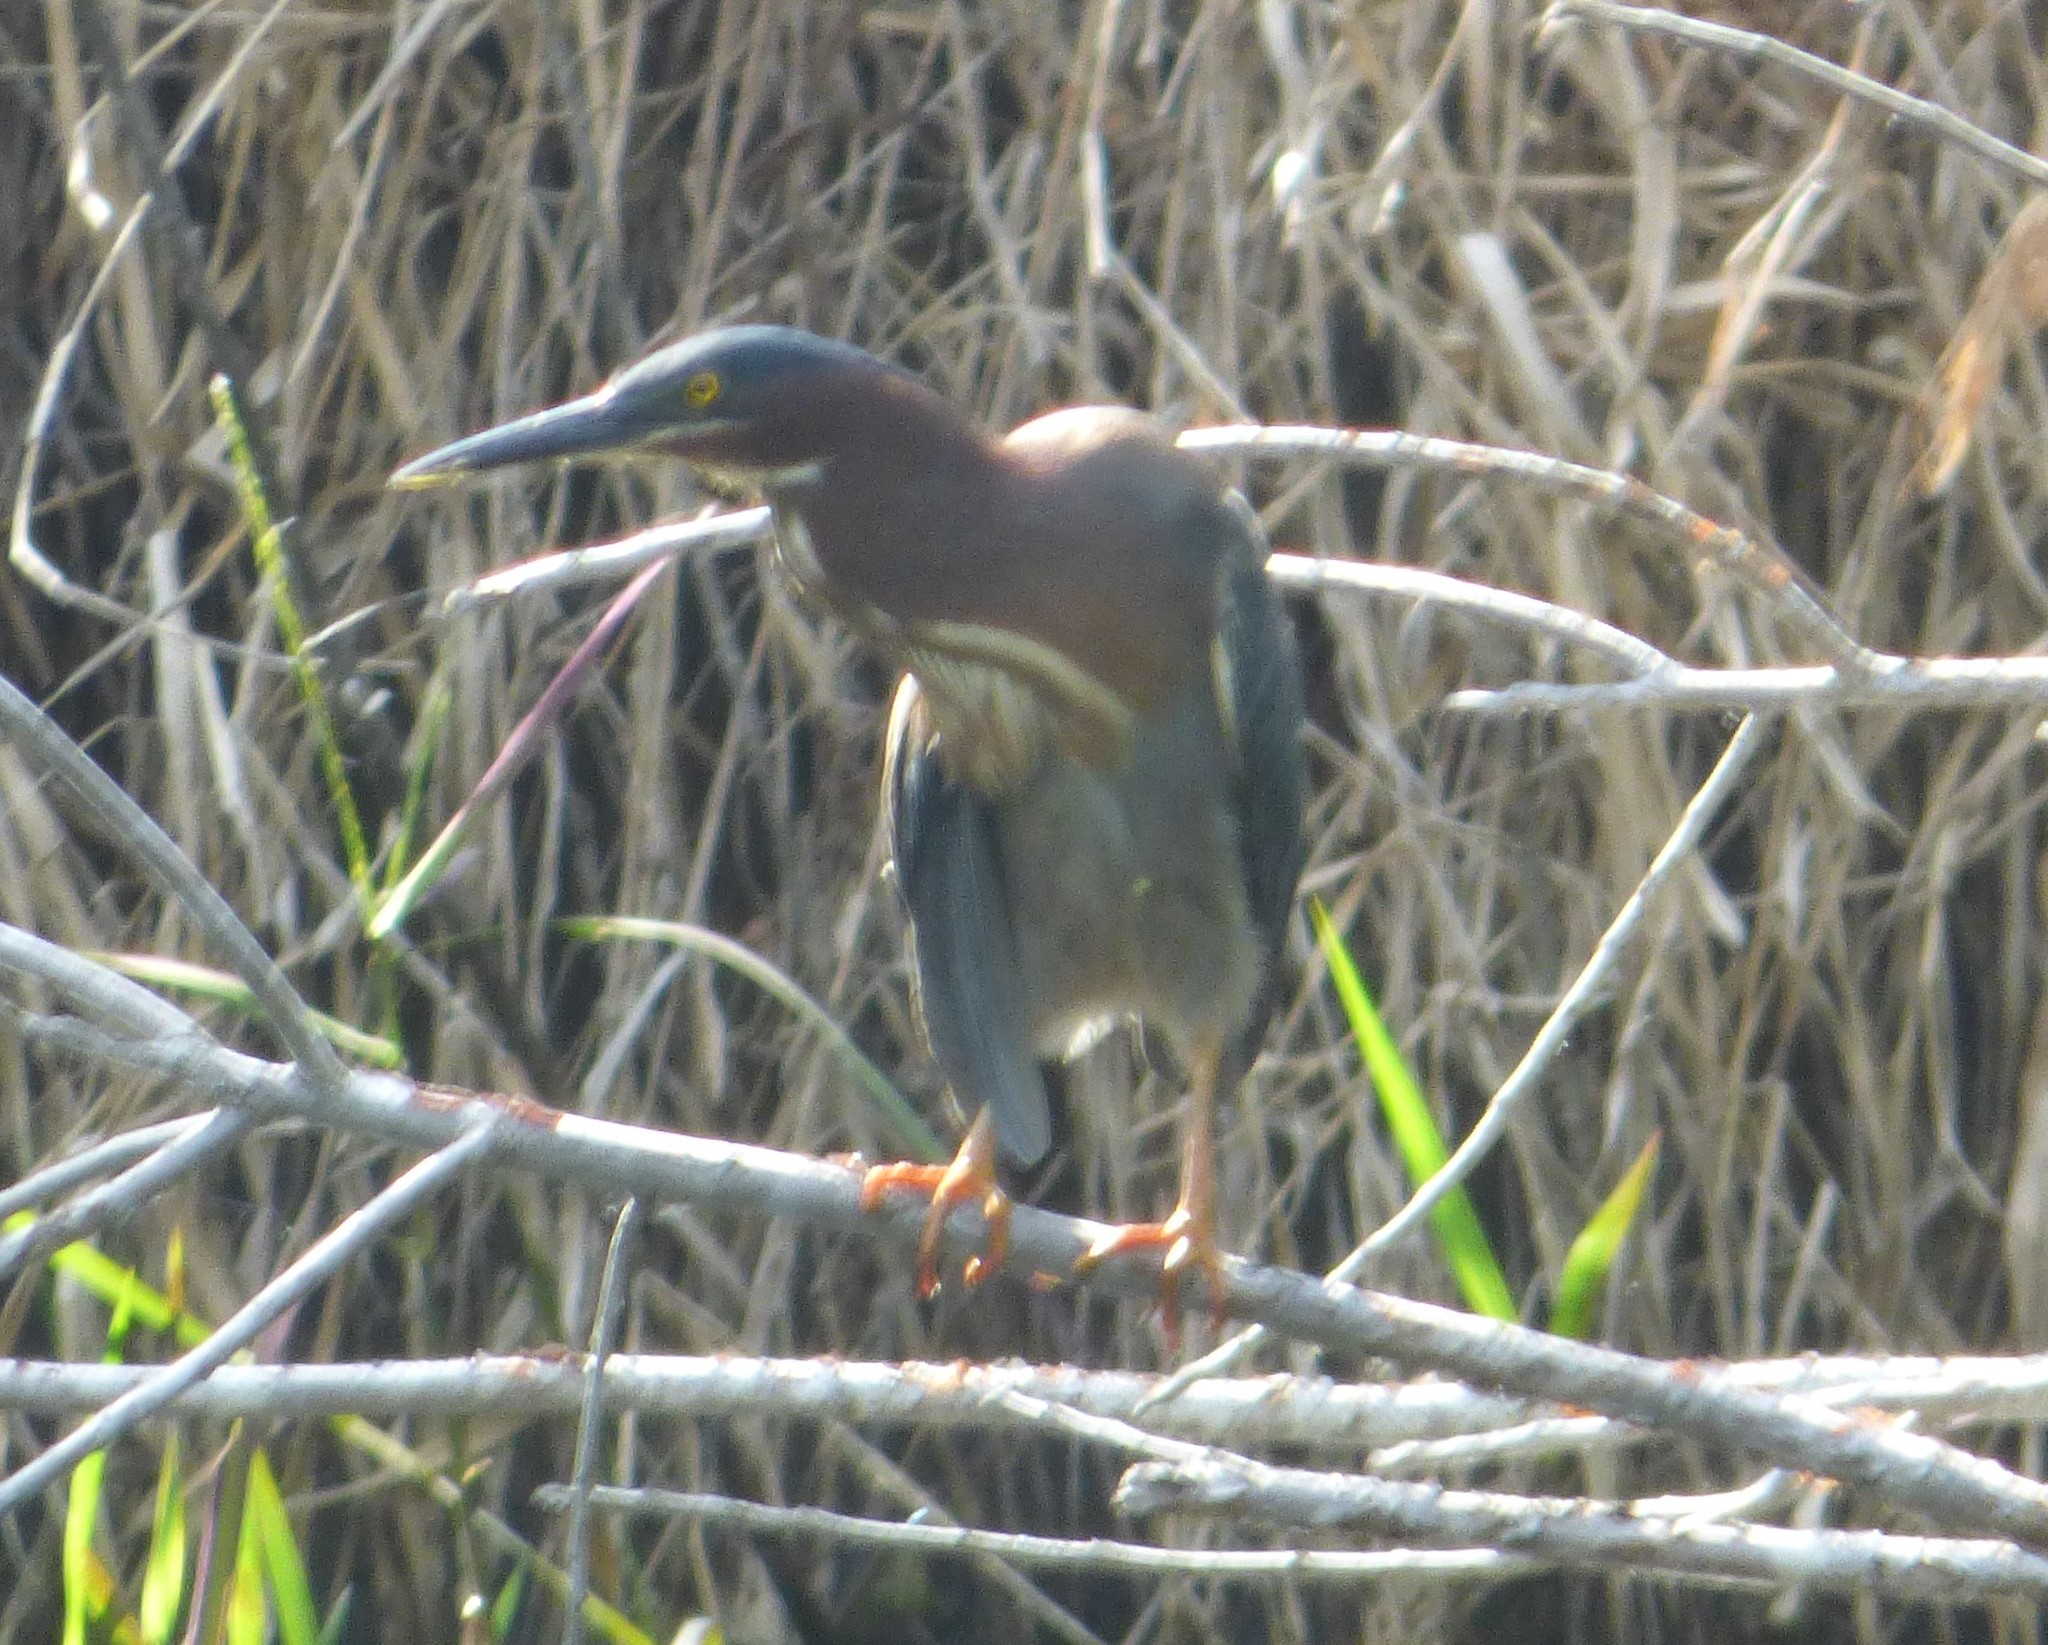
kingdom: Animalia
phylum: Chordata
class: Aves
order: Pelecaniformes
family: Ardeidae
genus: Butorides
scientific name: Butorides virescens
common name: Green heron
